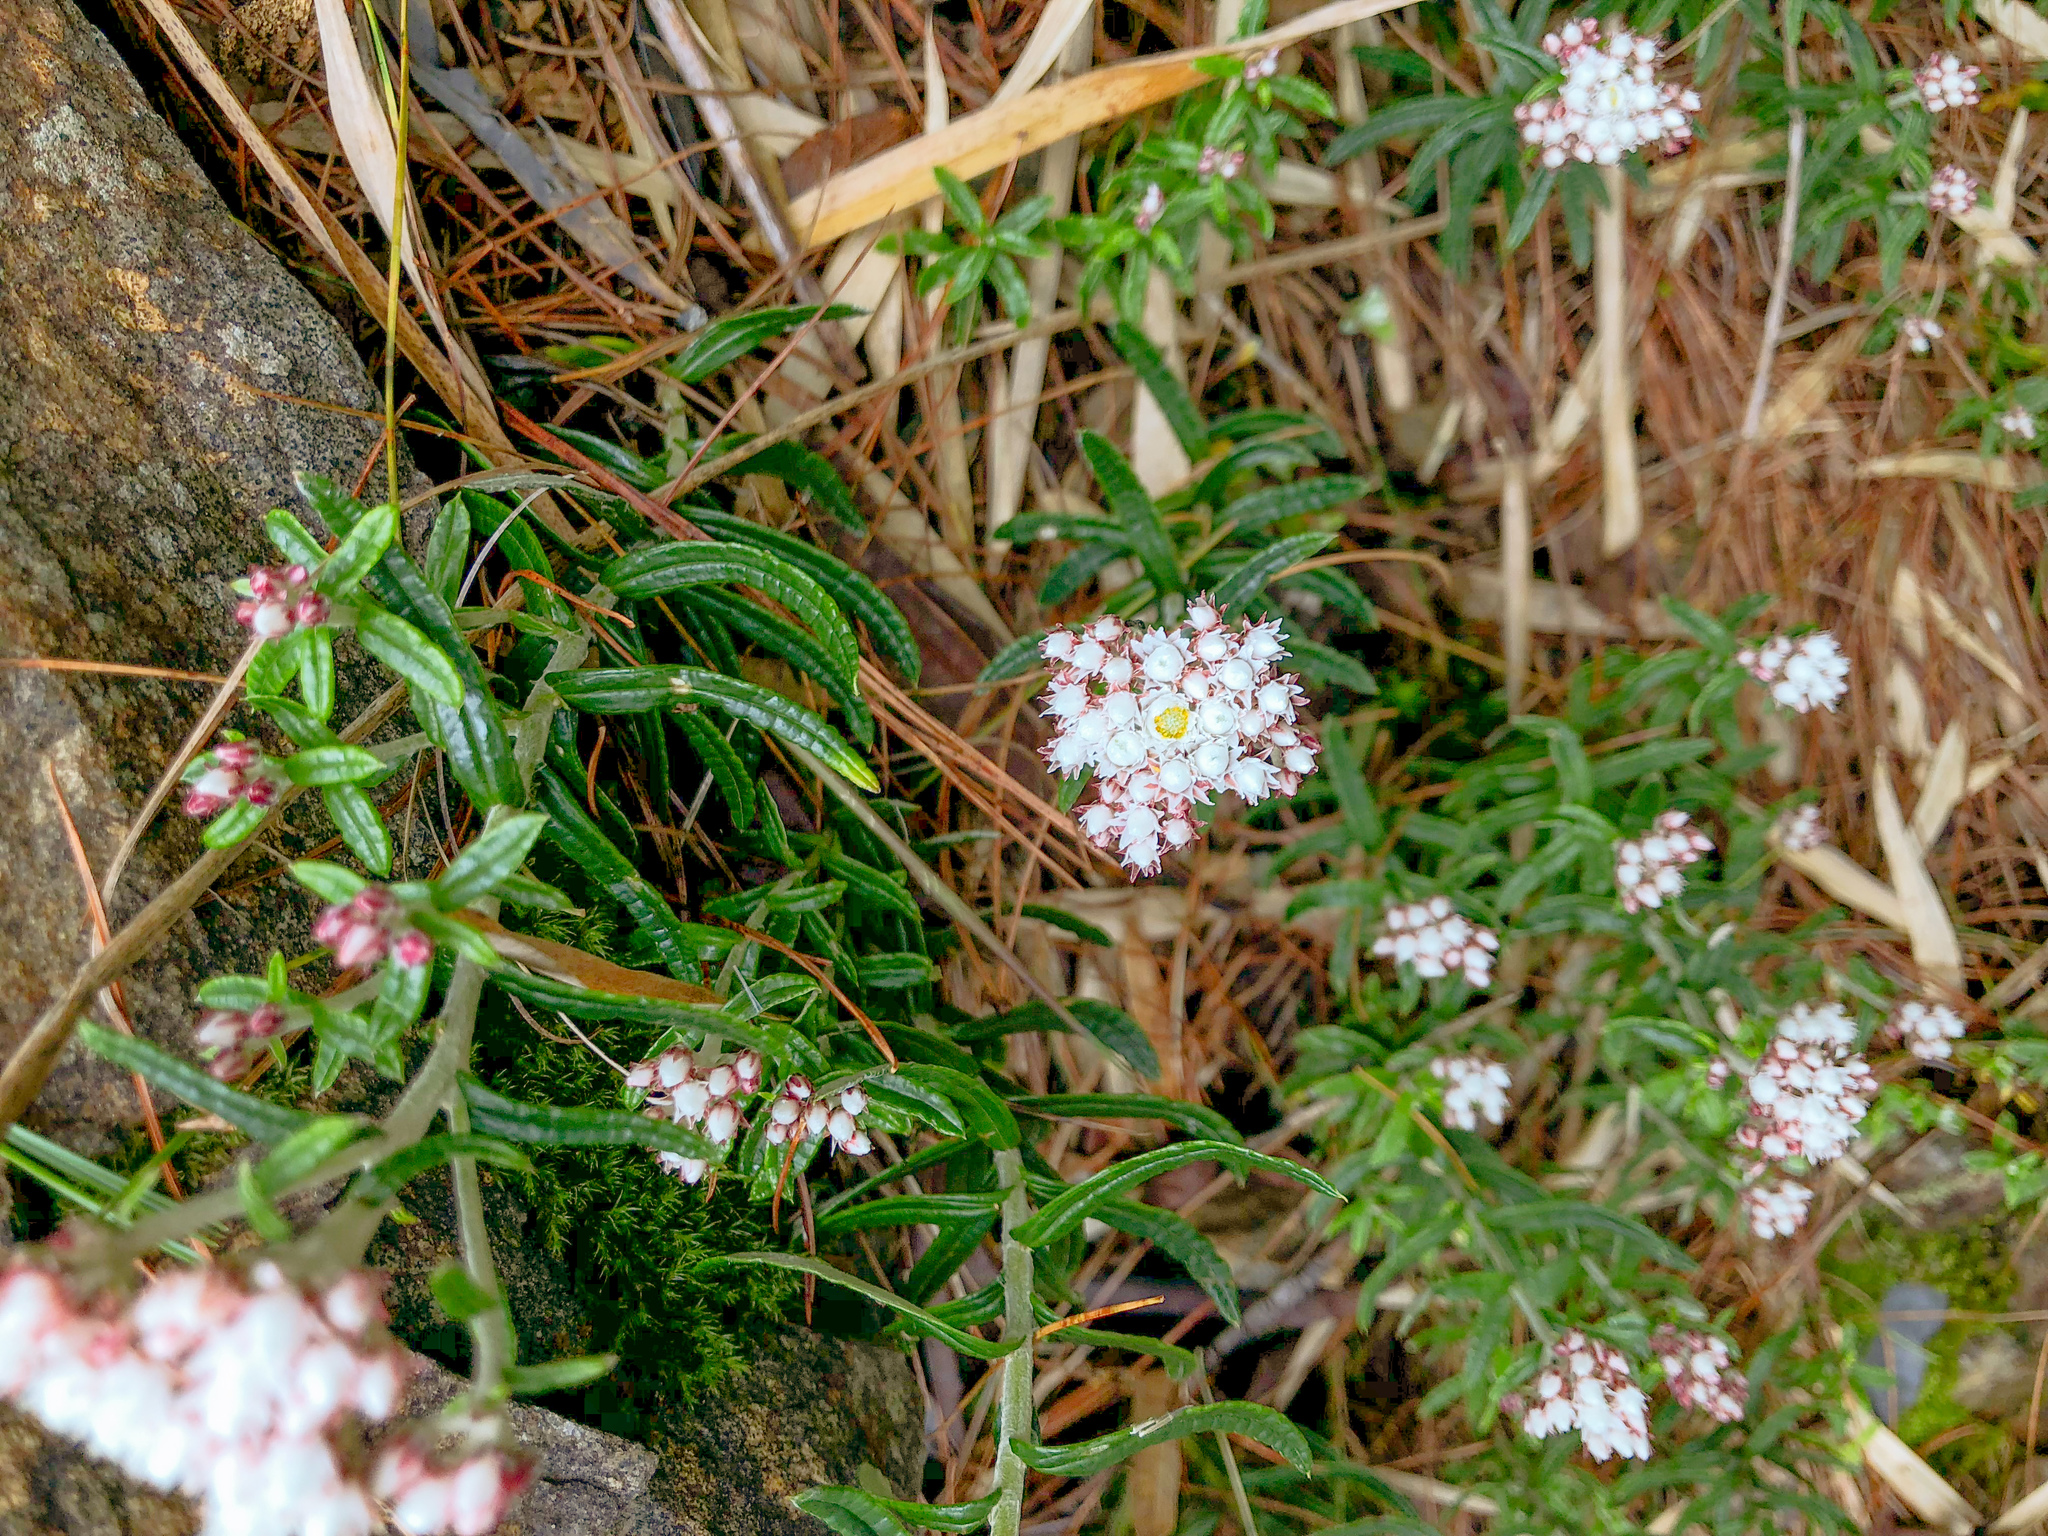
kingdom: Plantae
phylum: Tracheophyta
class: Magnoliopsida
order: Asterales
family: Asteraceae
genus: Anaphalis
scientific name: Anaphalis morrisonicola
